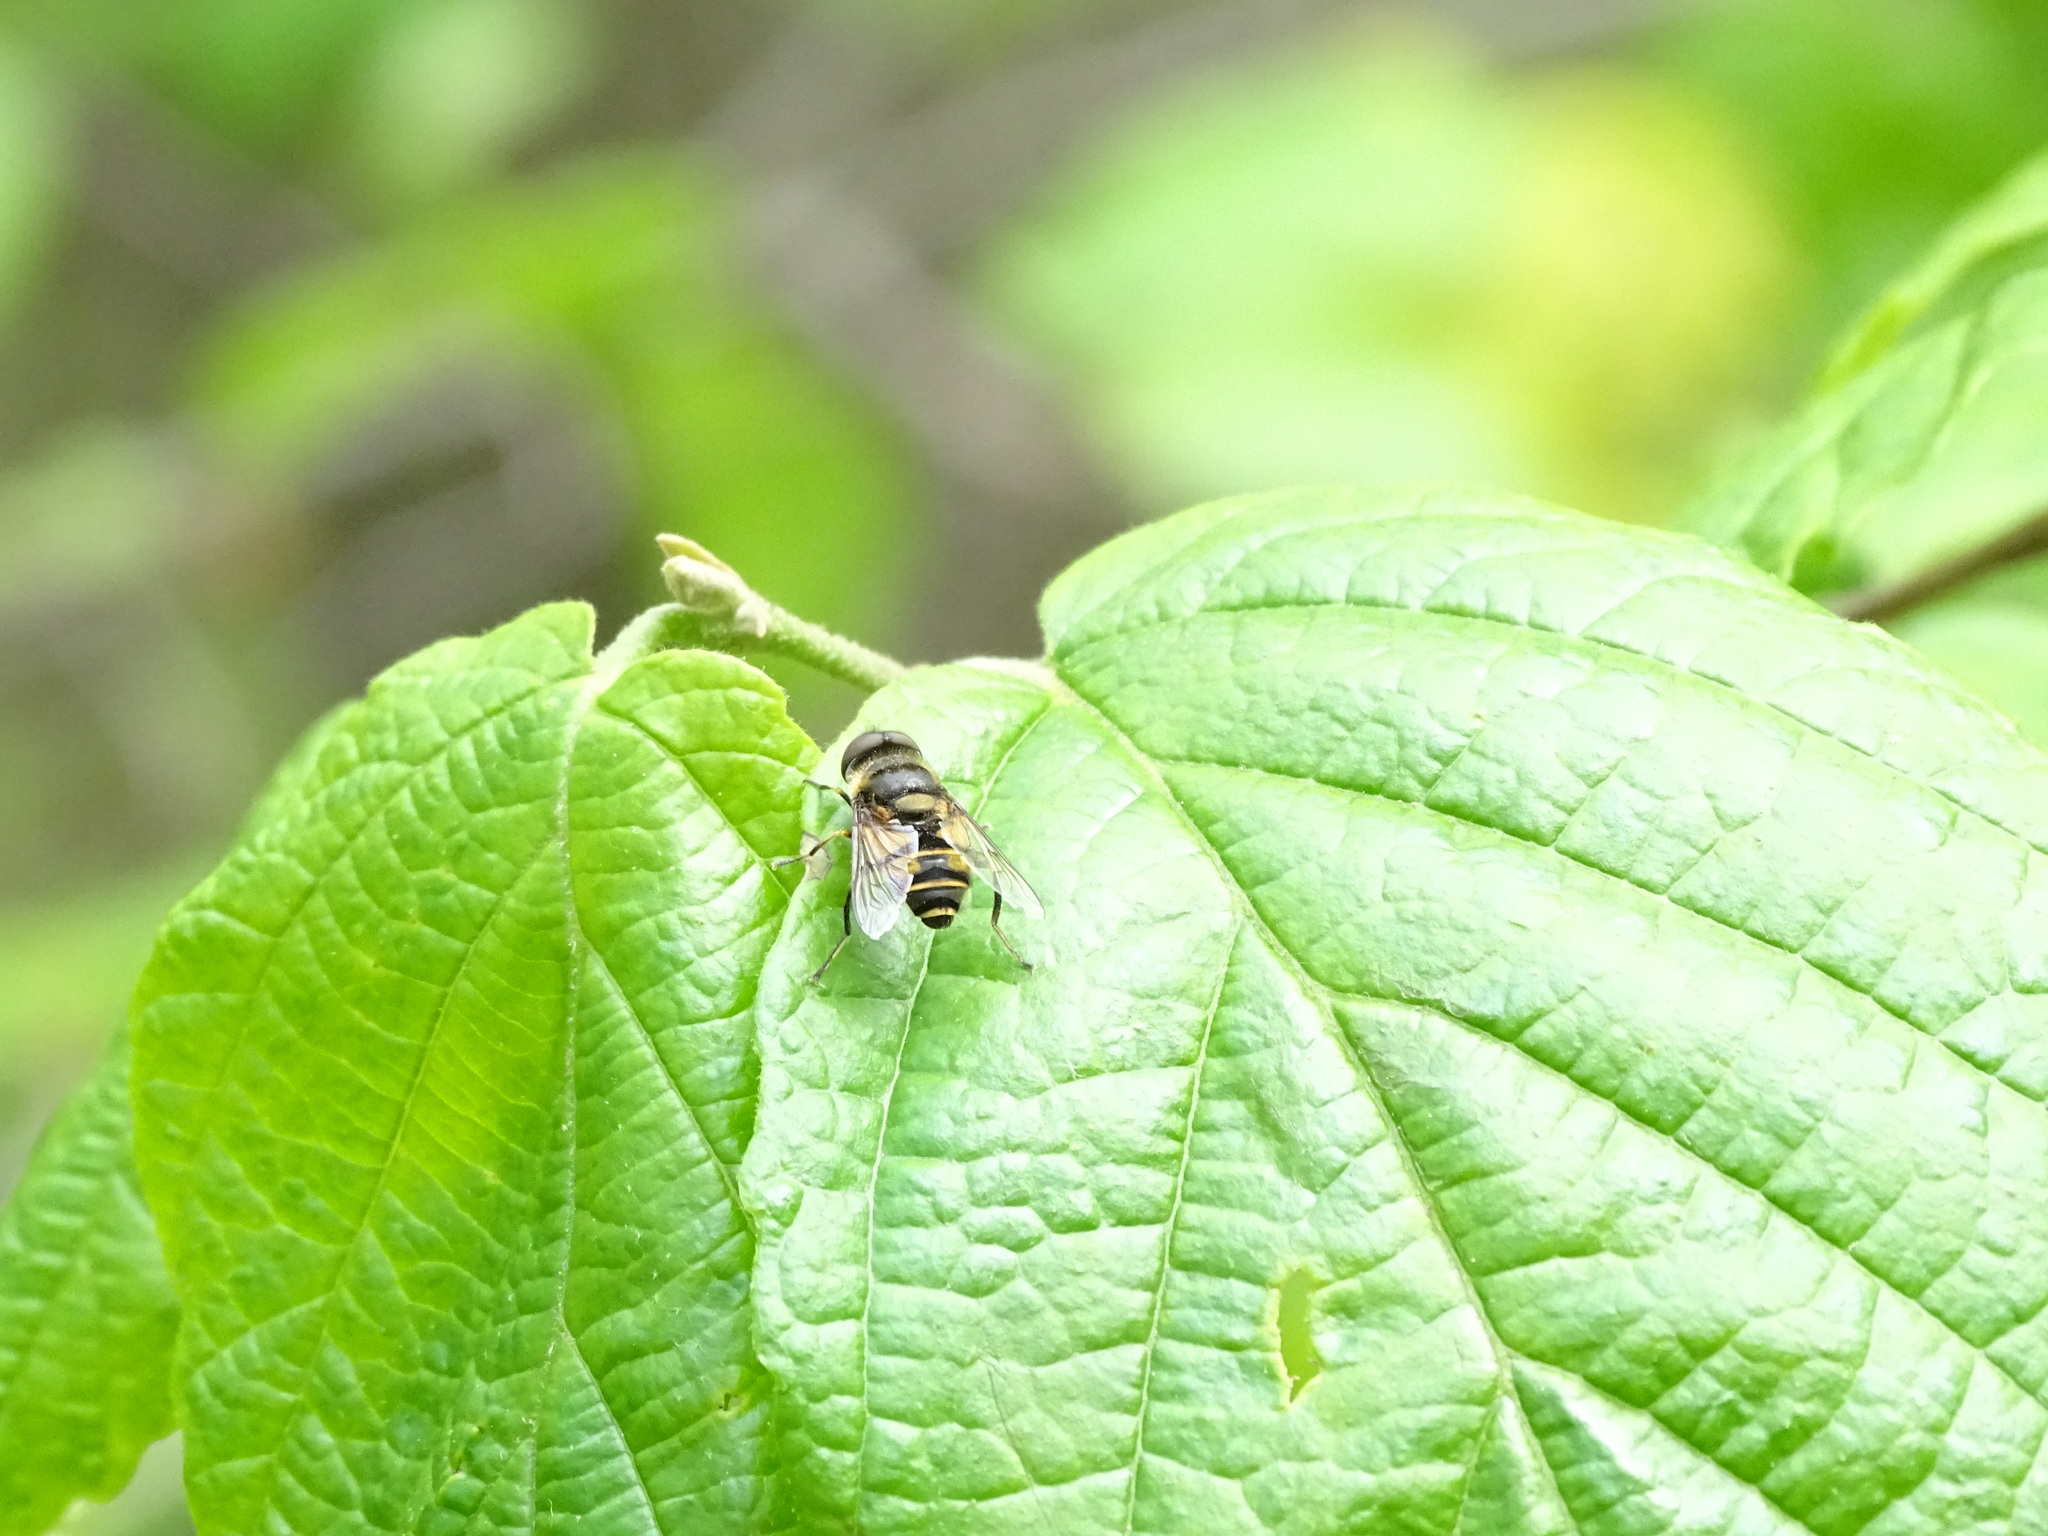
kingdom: Animalia
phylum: Arthropoda
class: Insecta
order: Diptera
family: Syrphidae
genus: Eristalis
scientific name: Eristalis transversa
